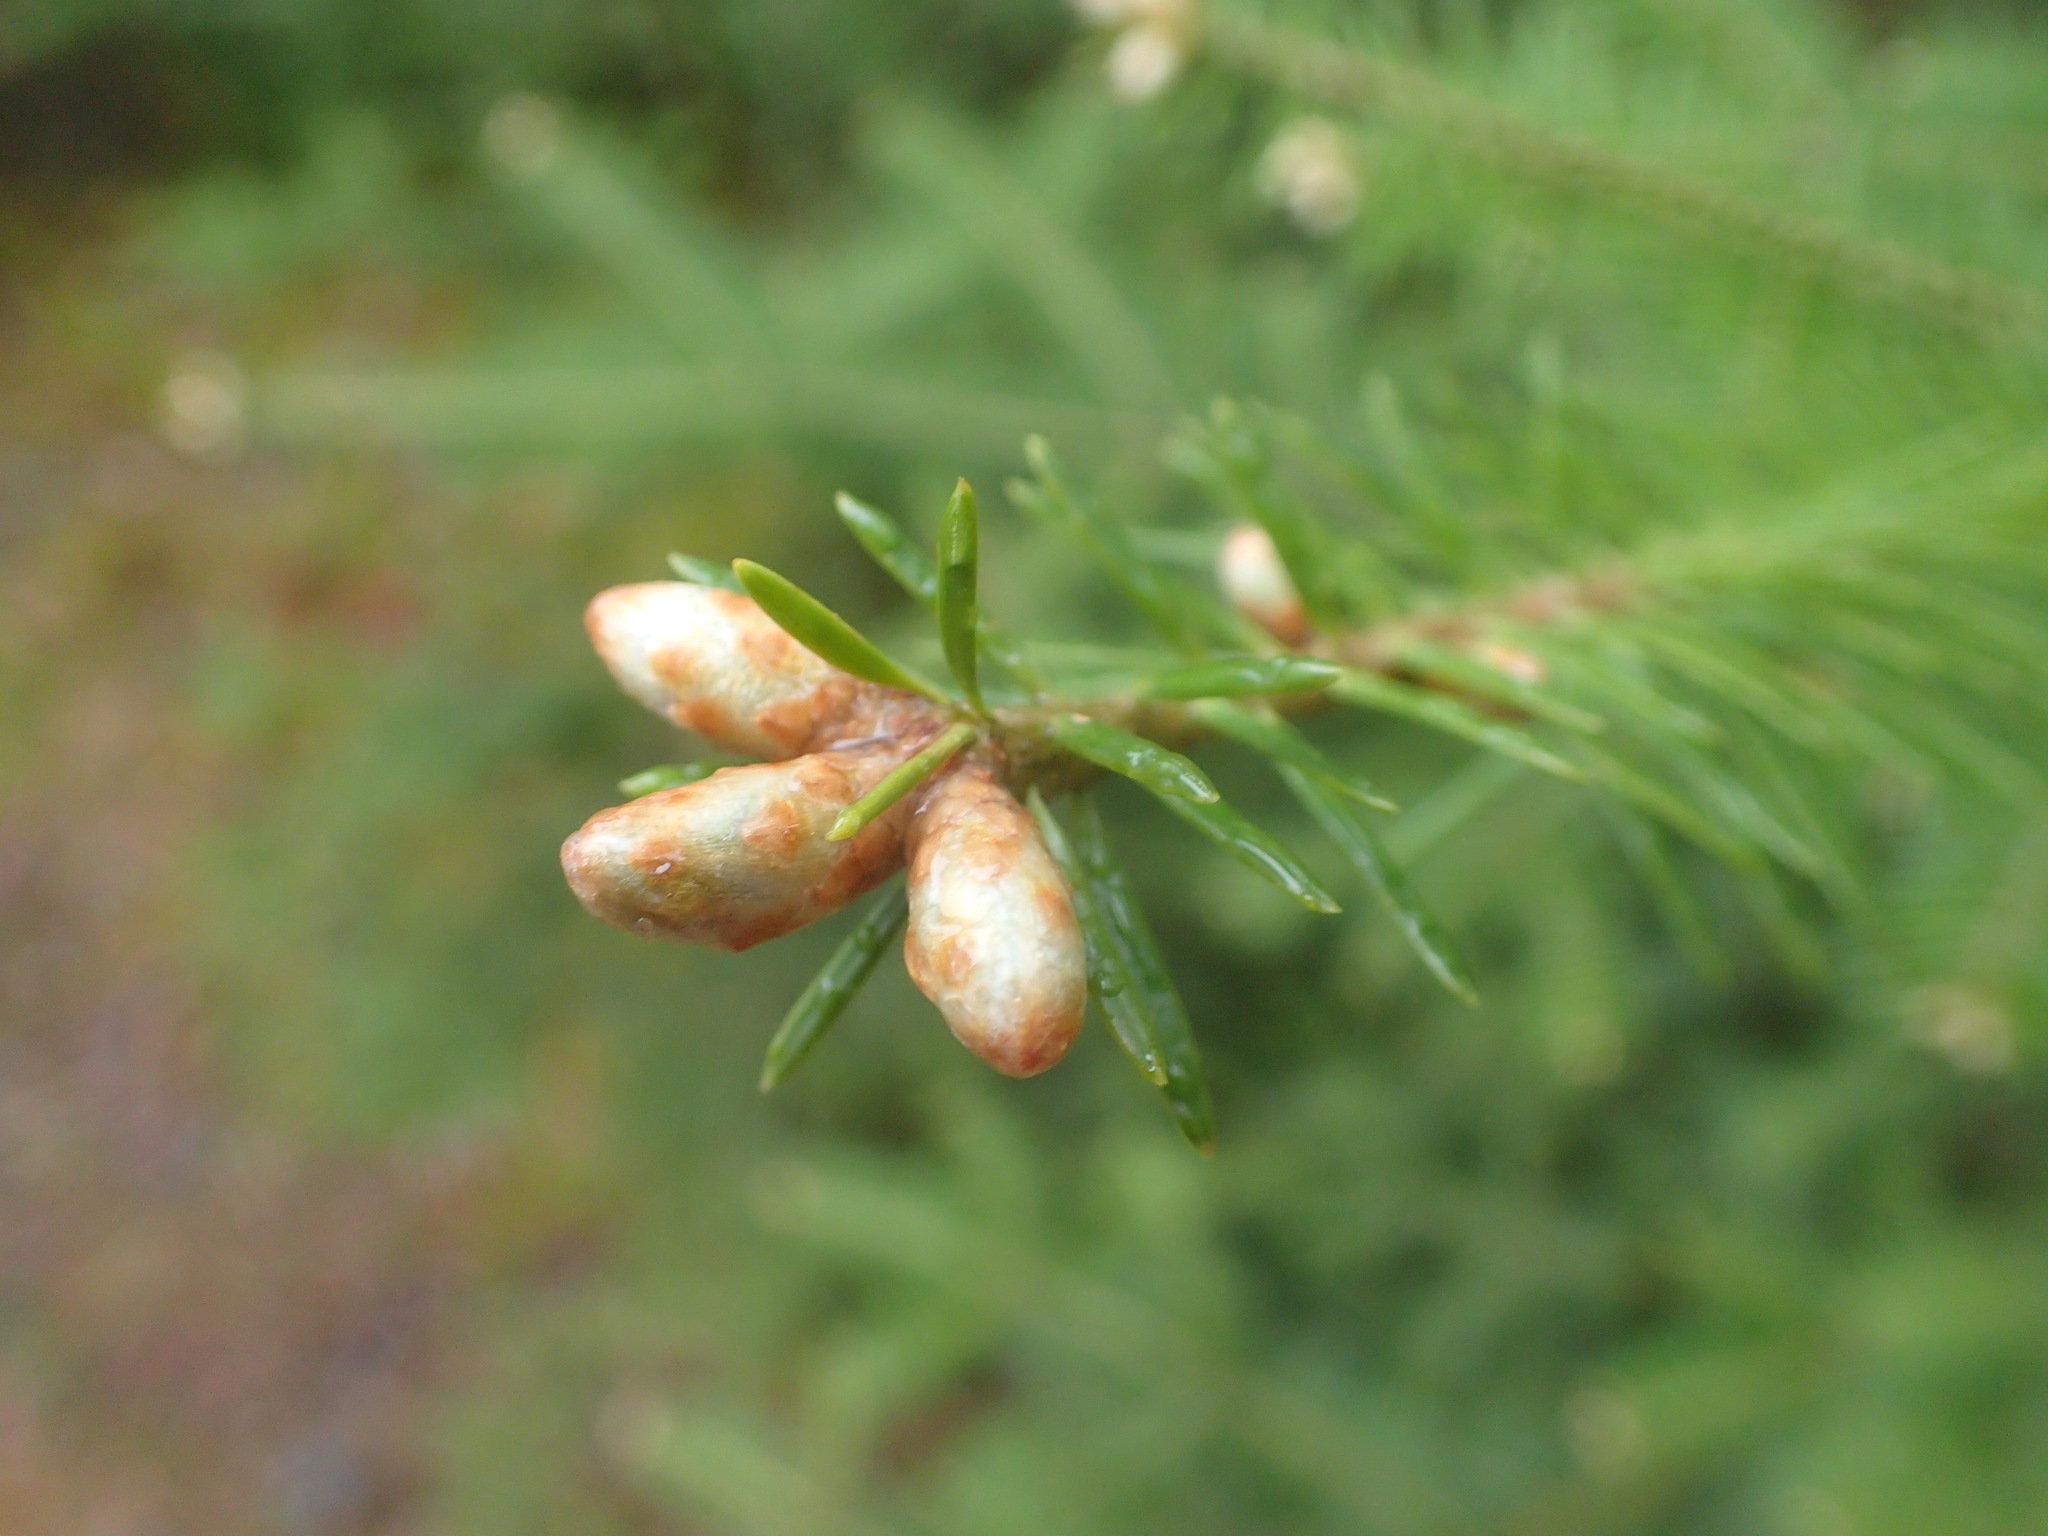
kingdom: Plantae
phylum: Tracheophyta
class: Pinopsida
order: Pinales
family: Pinaceae
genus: Abies
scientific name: Abies balsamea
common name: Balsam fir
